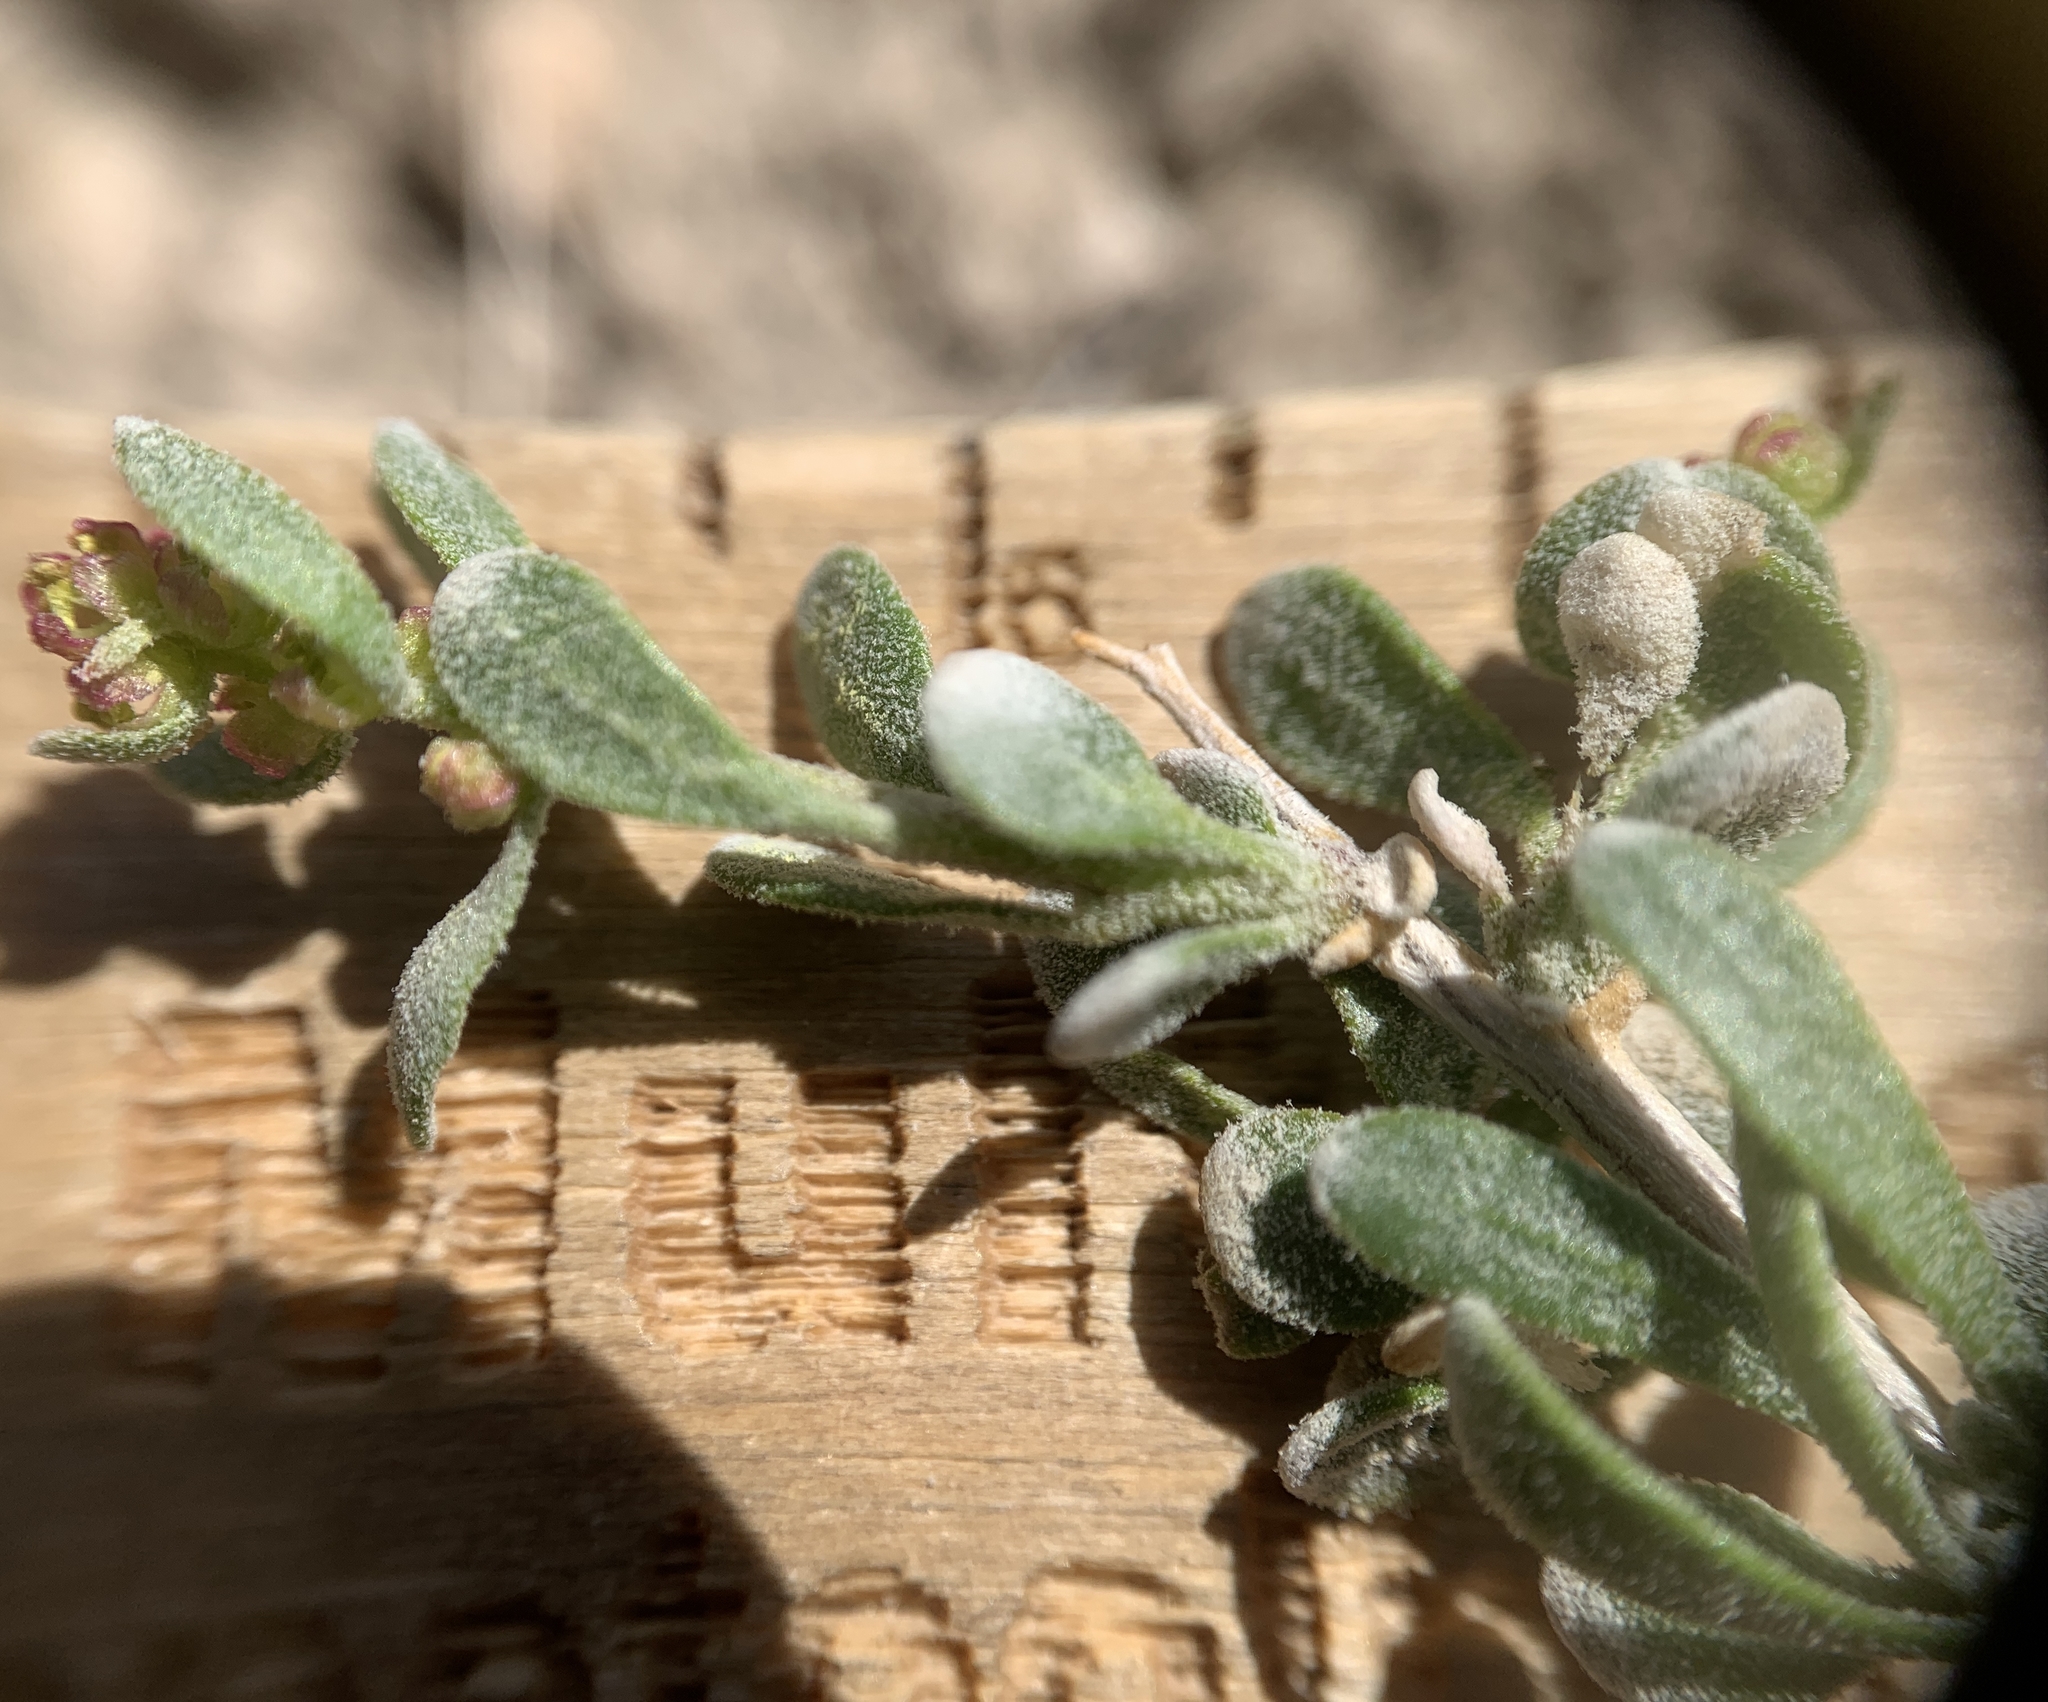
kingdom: Plantae
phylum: Tracheophyta
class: Magnoliopsida
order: Caryophyllales
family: Amaranthaceae
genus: Grayia
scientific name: Grayia spinosa
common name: Spiny hopsage
